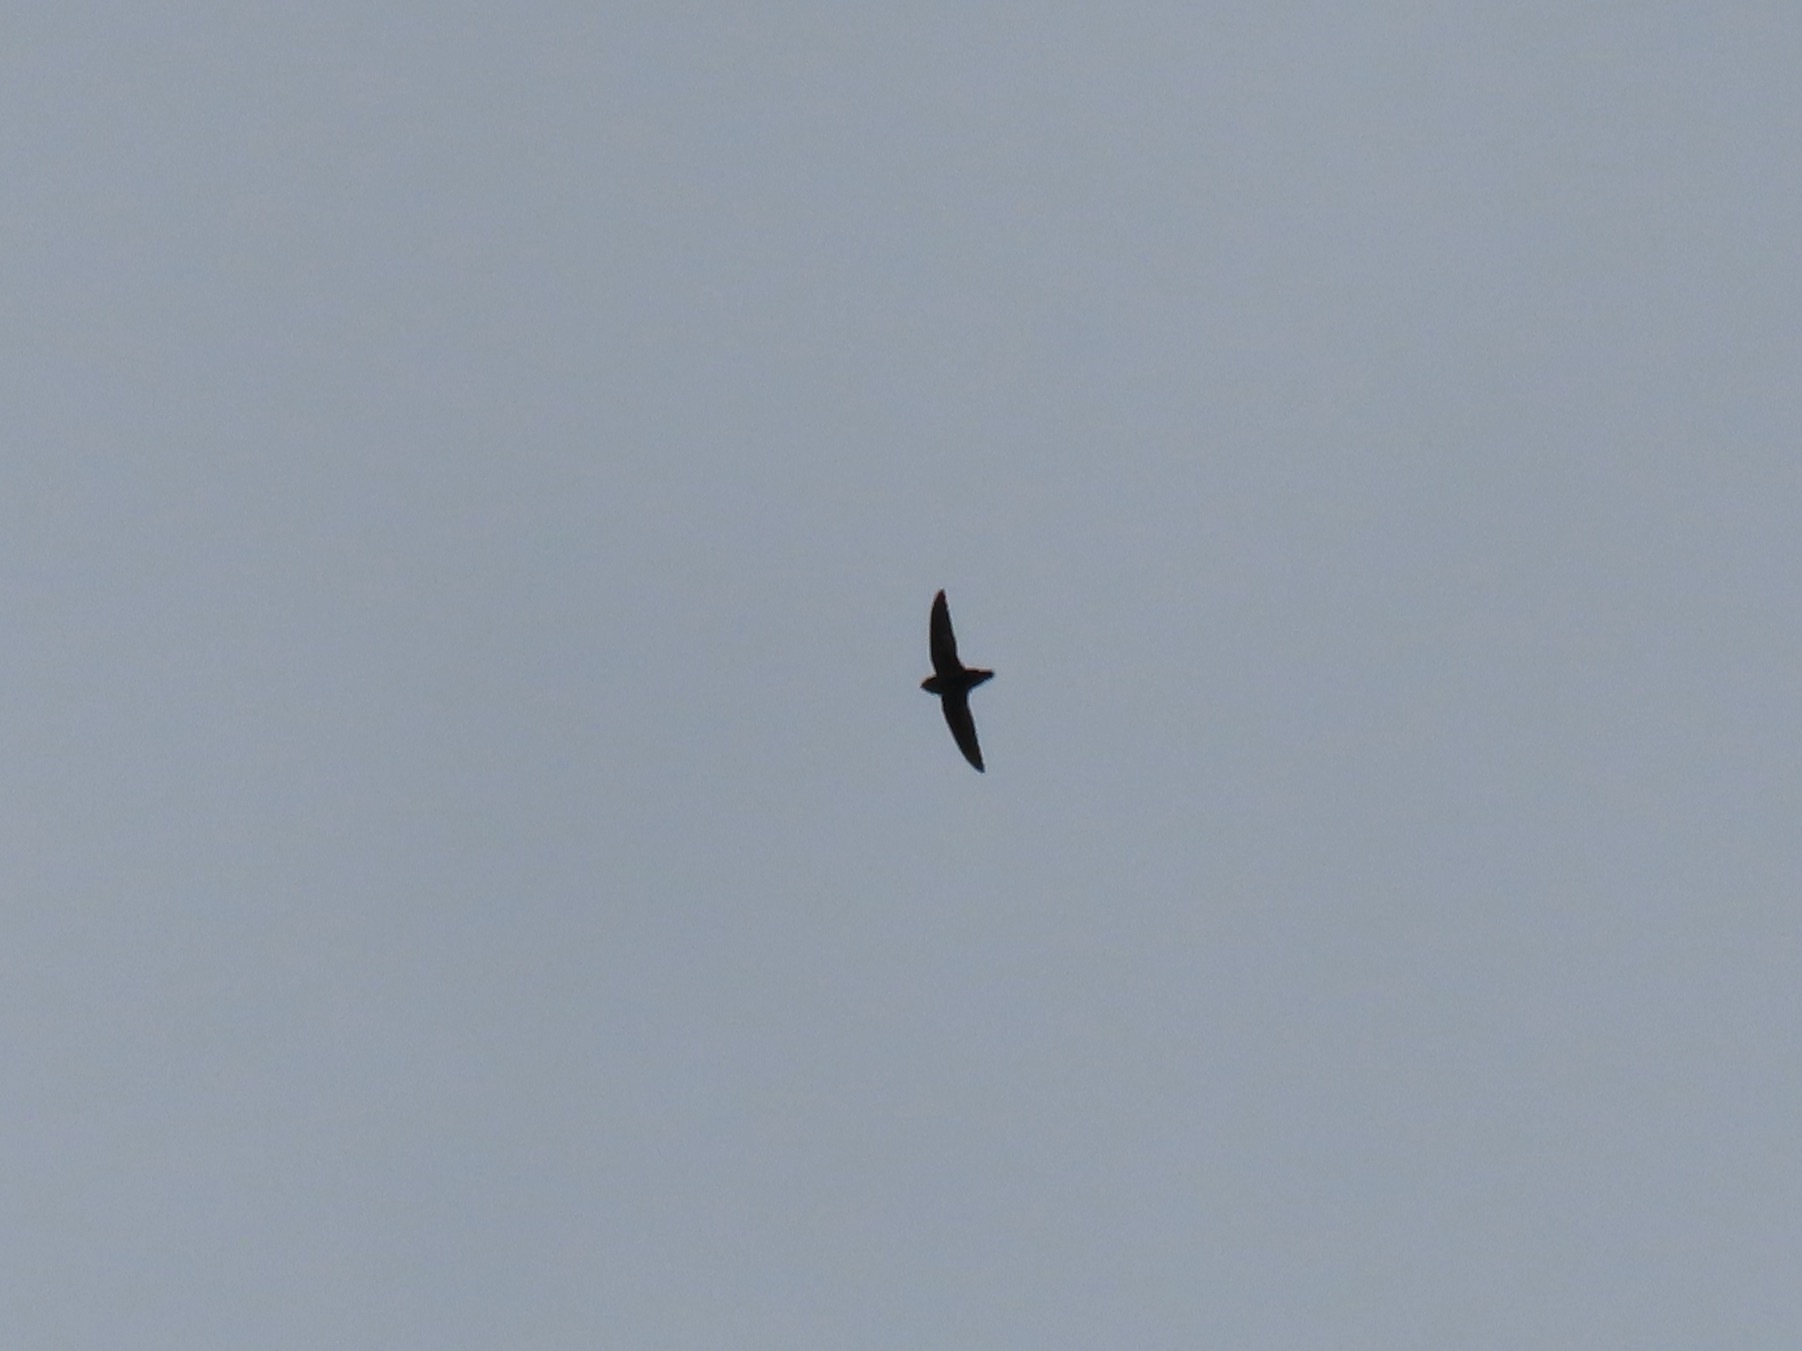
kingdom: Animalia
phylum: Chordata
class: Aves
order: Apodiformes
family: Apodidae
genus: Chaetura
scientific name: Chaetura vauxi
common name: Vaux's swift
